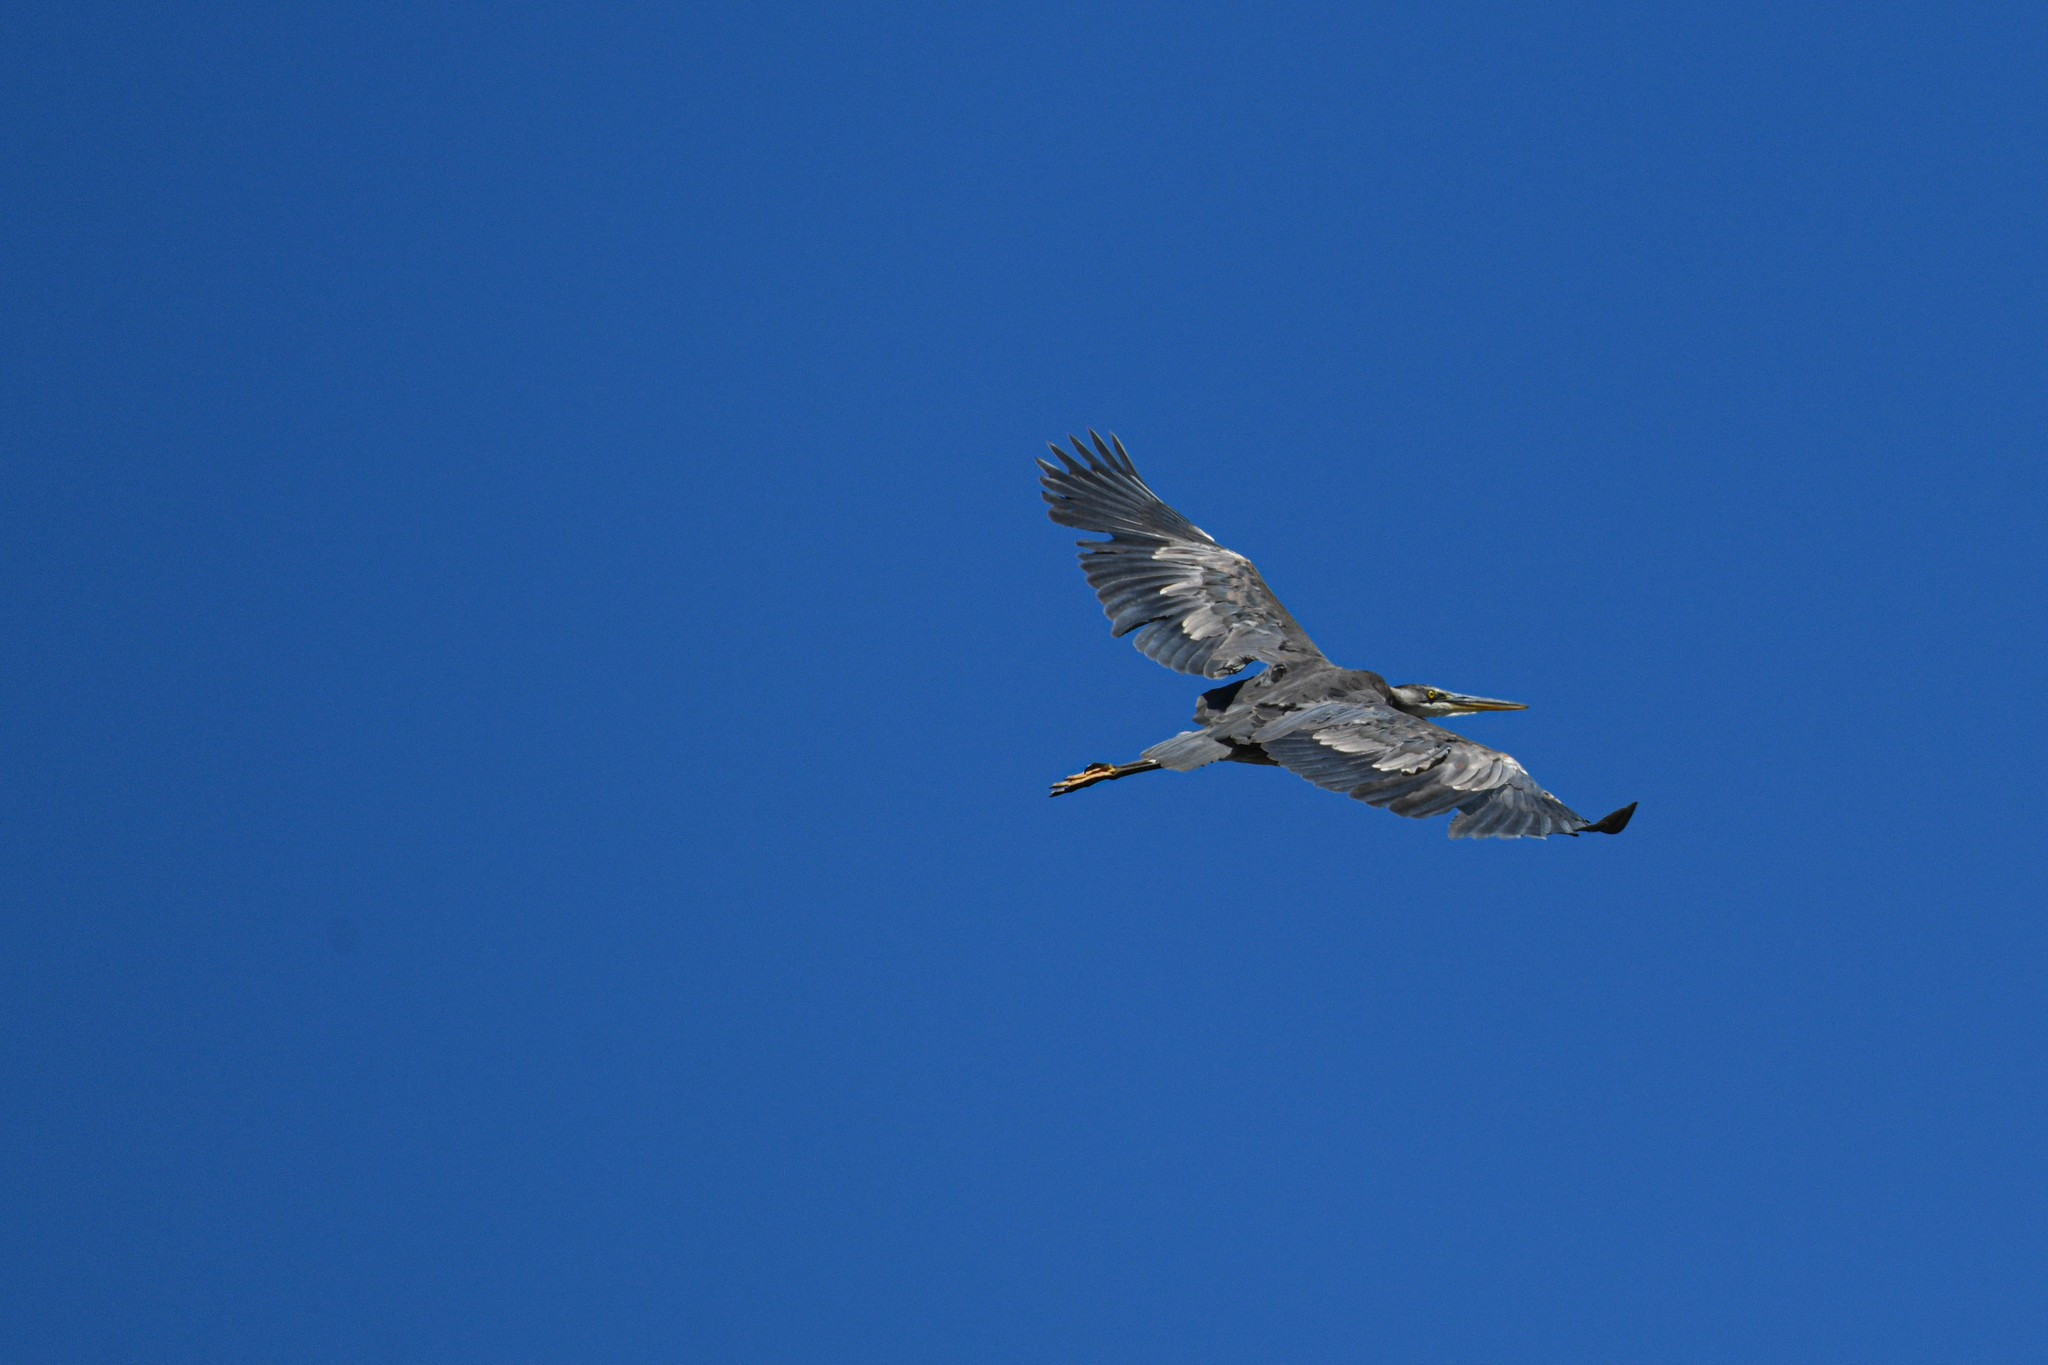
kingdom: Animalia
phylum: Chordata
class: Aves
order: Pelecaniformes
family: Ardeidae
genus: Ardea
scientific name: Ardea herodias
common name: Great blue heron
